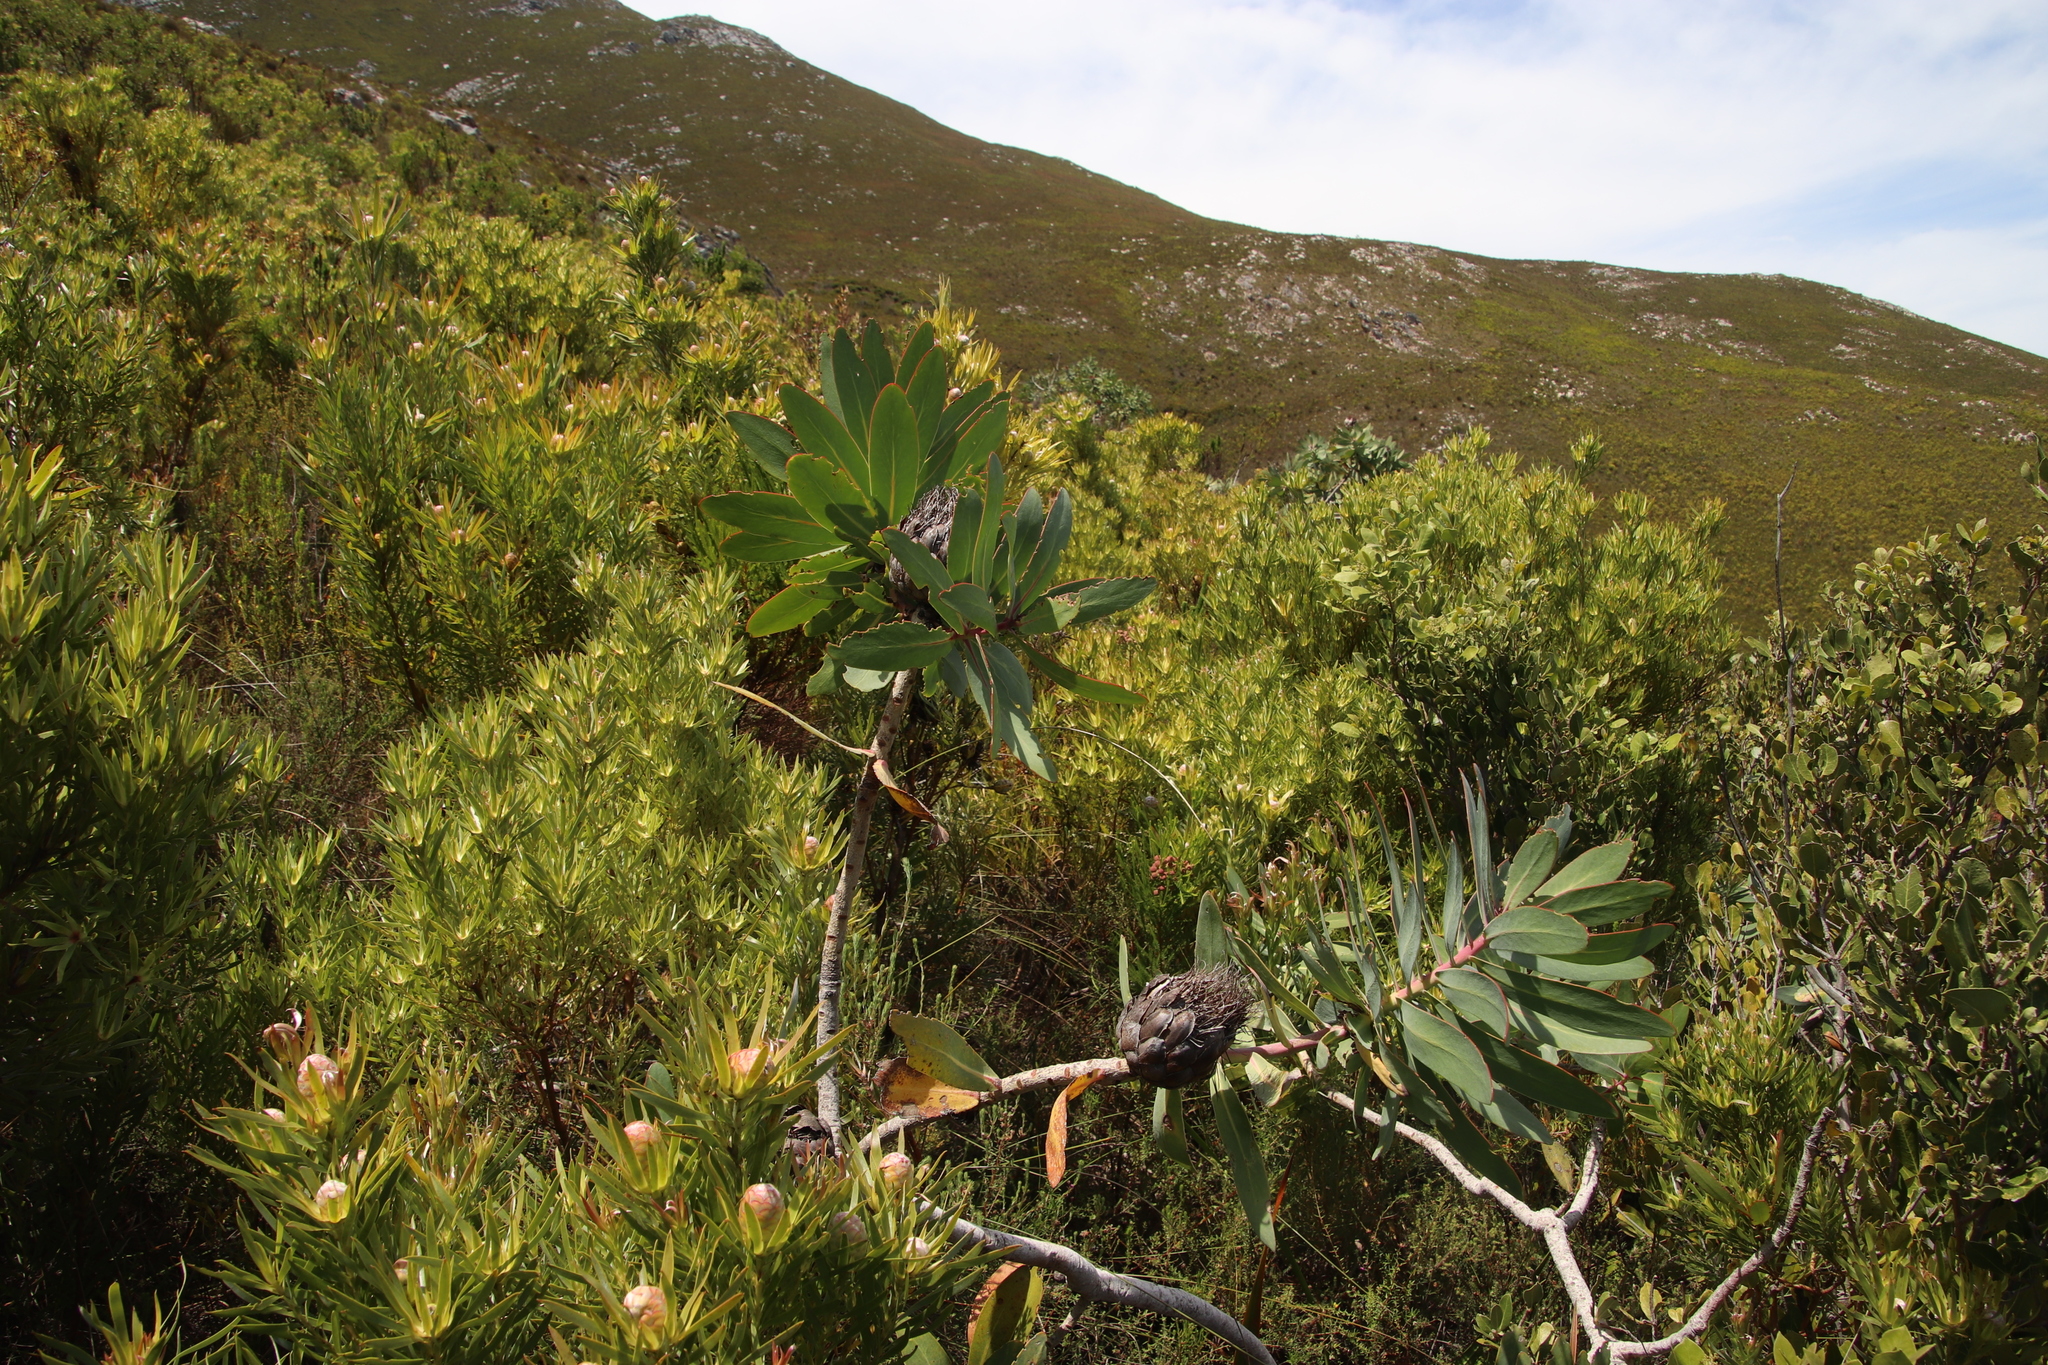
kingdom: Plantae
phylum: Tracheophyta
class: Magnoliopsida
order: Proteales
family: Proteaceae
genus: Protea
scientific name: Protea nitida
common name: Tree protea
